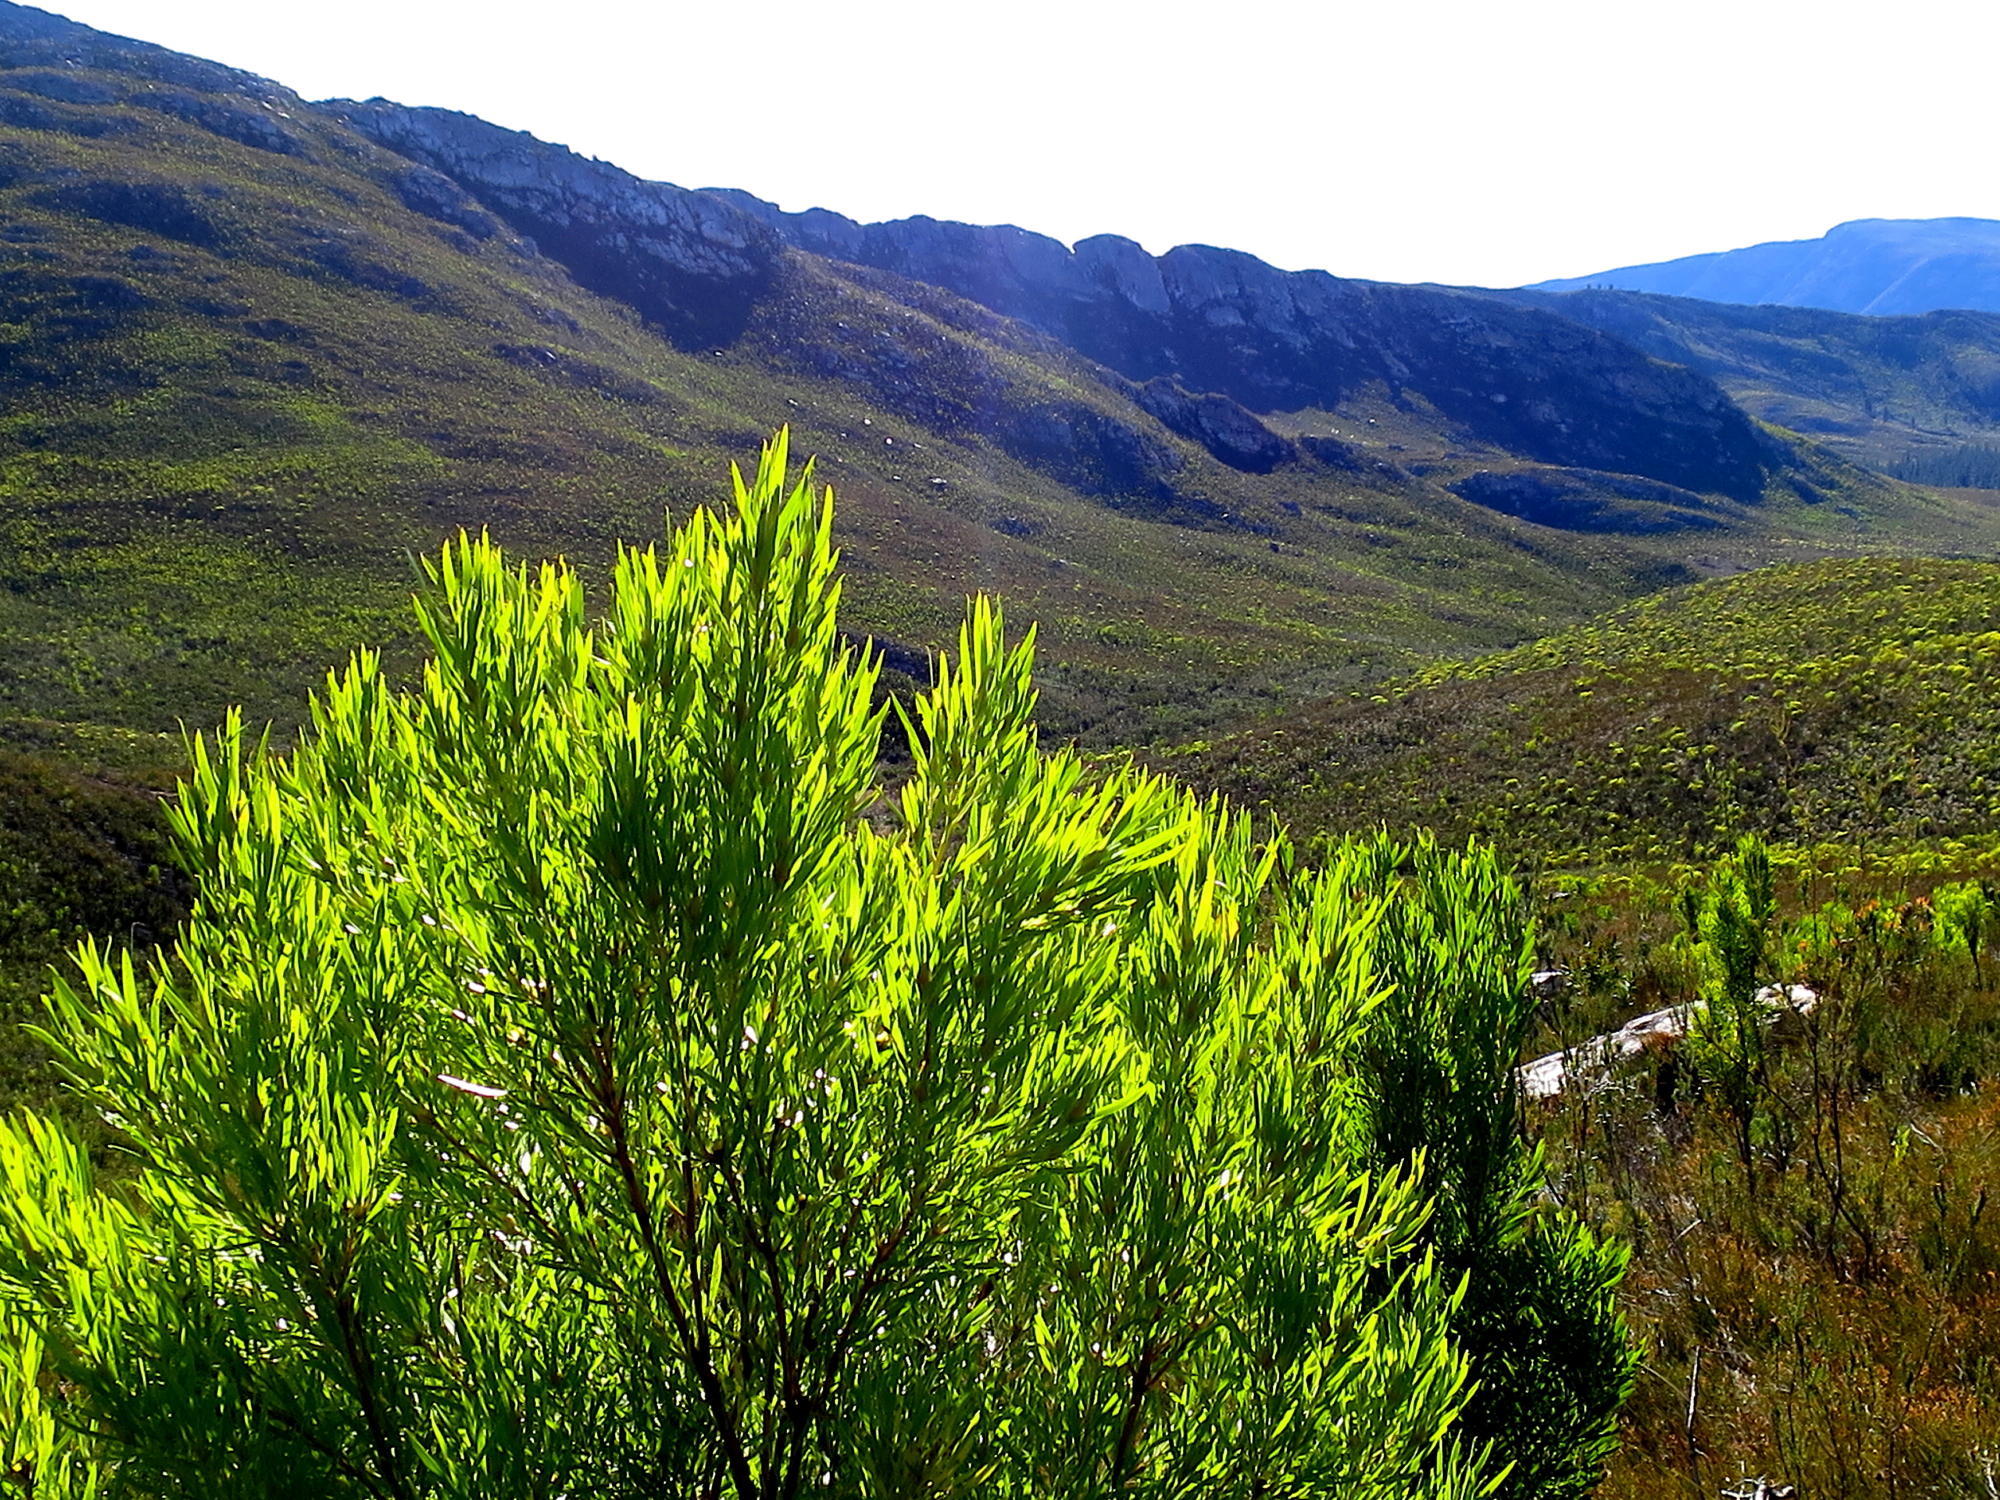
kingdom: Plantae
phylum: Tracheophyta
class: Magnoliopsida
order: Proteales
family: Proteaceae
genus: Leucadendron
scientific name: Leucadendron eucalyptifolium
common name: Gum-leaved conebush
